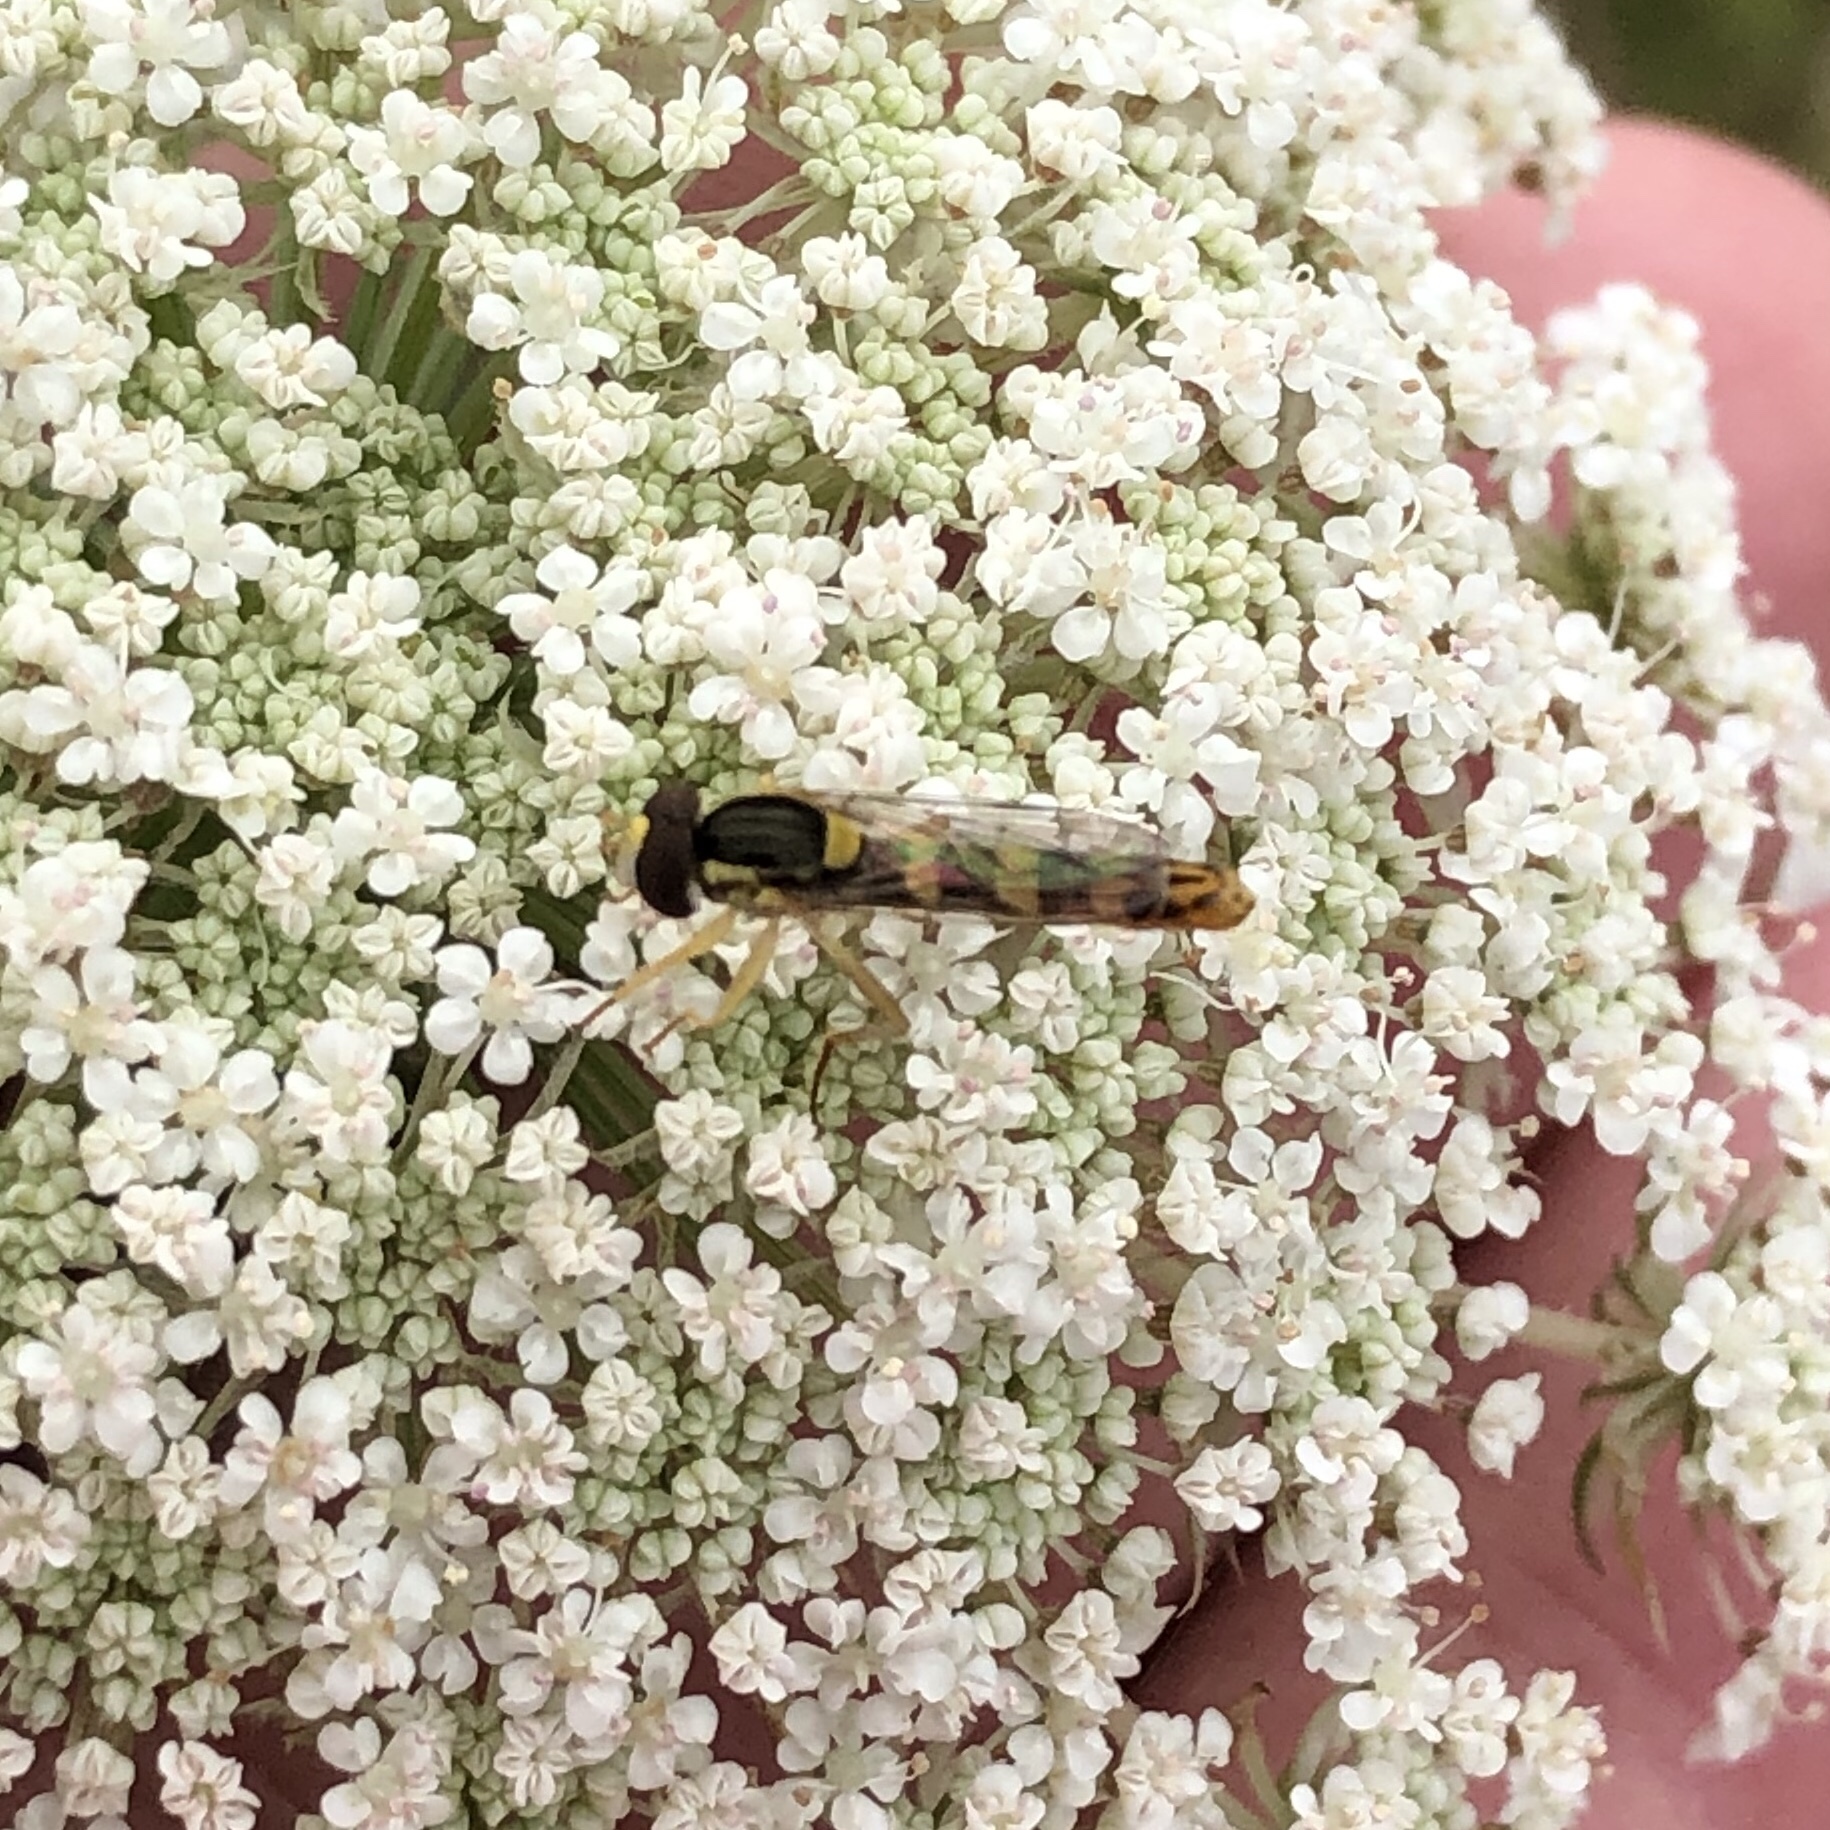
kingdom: Animalia
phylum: Arthropoda
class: Insecta
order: Diptera
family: Syrphidae
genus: Sphaerophoria
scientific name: Sphaerophoria scripta
